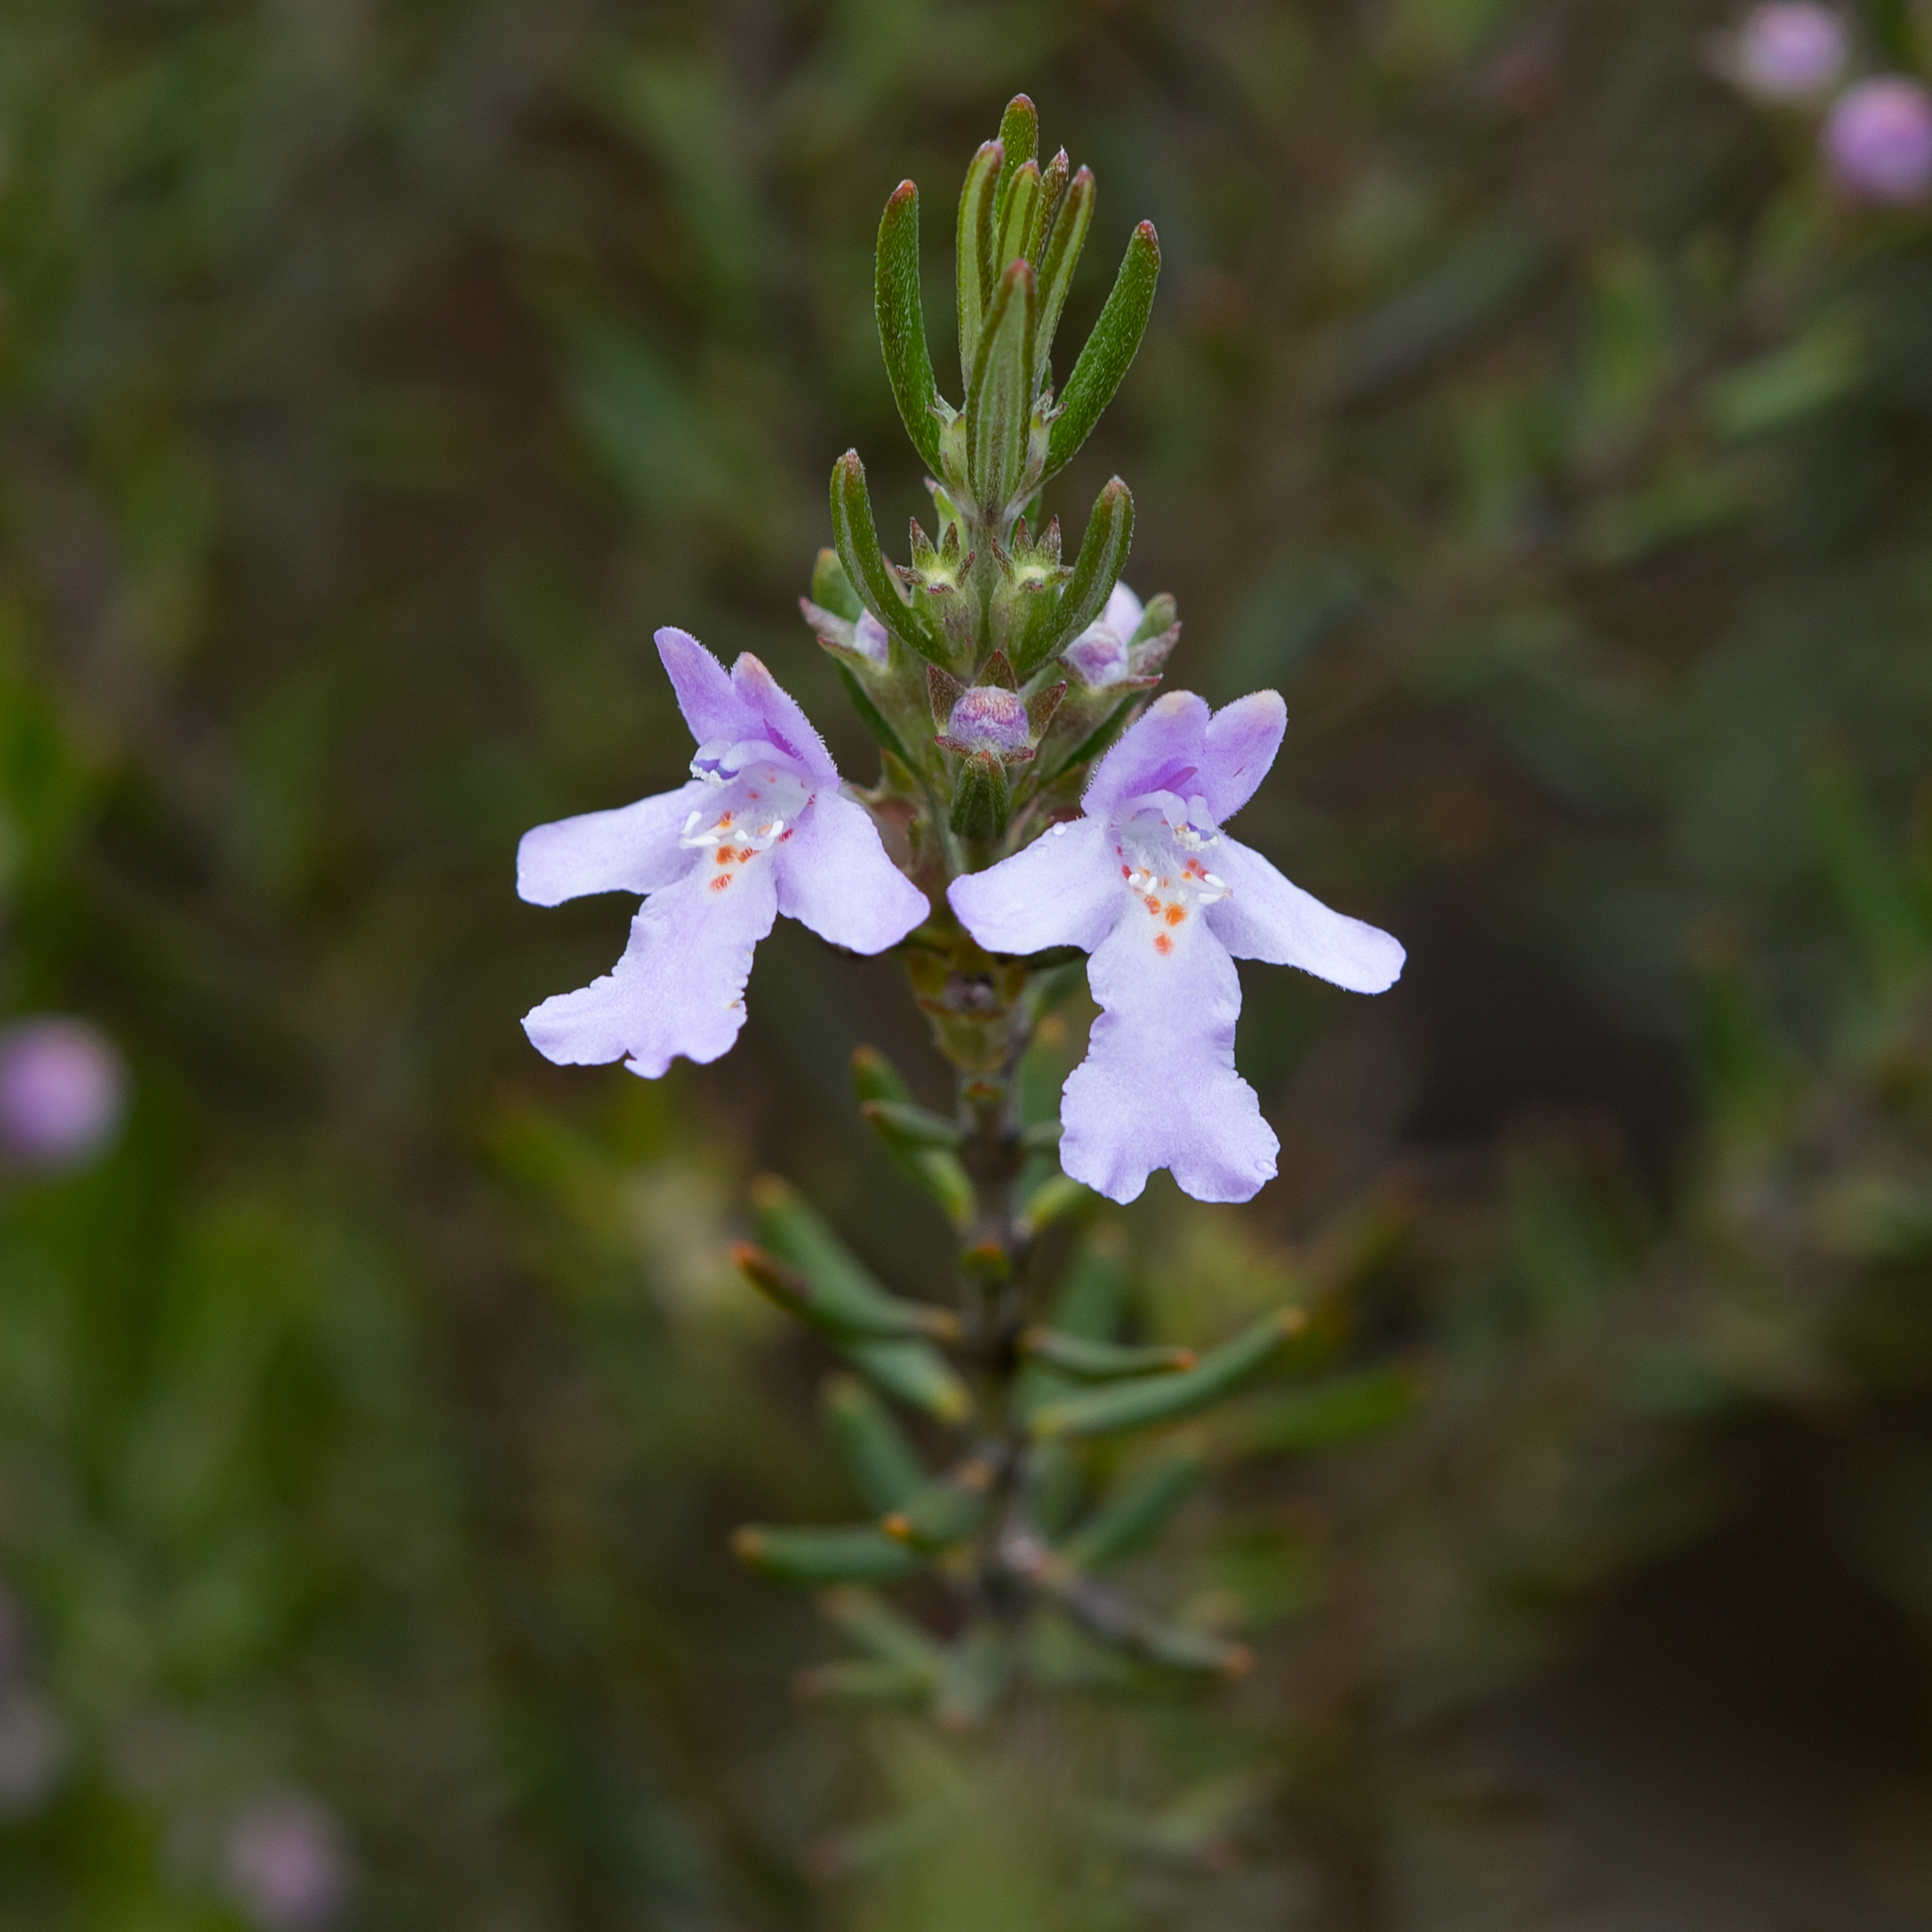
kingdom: Plantae
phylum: Tracheophyta
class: Magnoliopsida
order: Lamiales
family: Lamiaceae
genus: Westringia
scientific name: Westringia eremicola
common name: Slender western-rosemary
